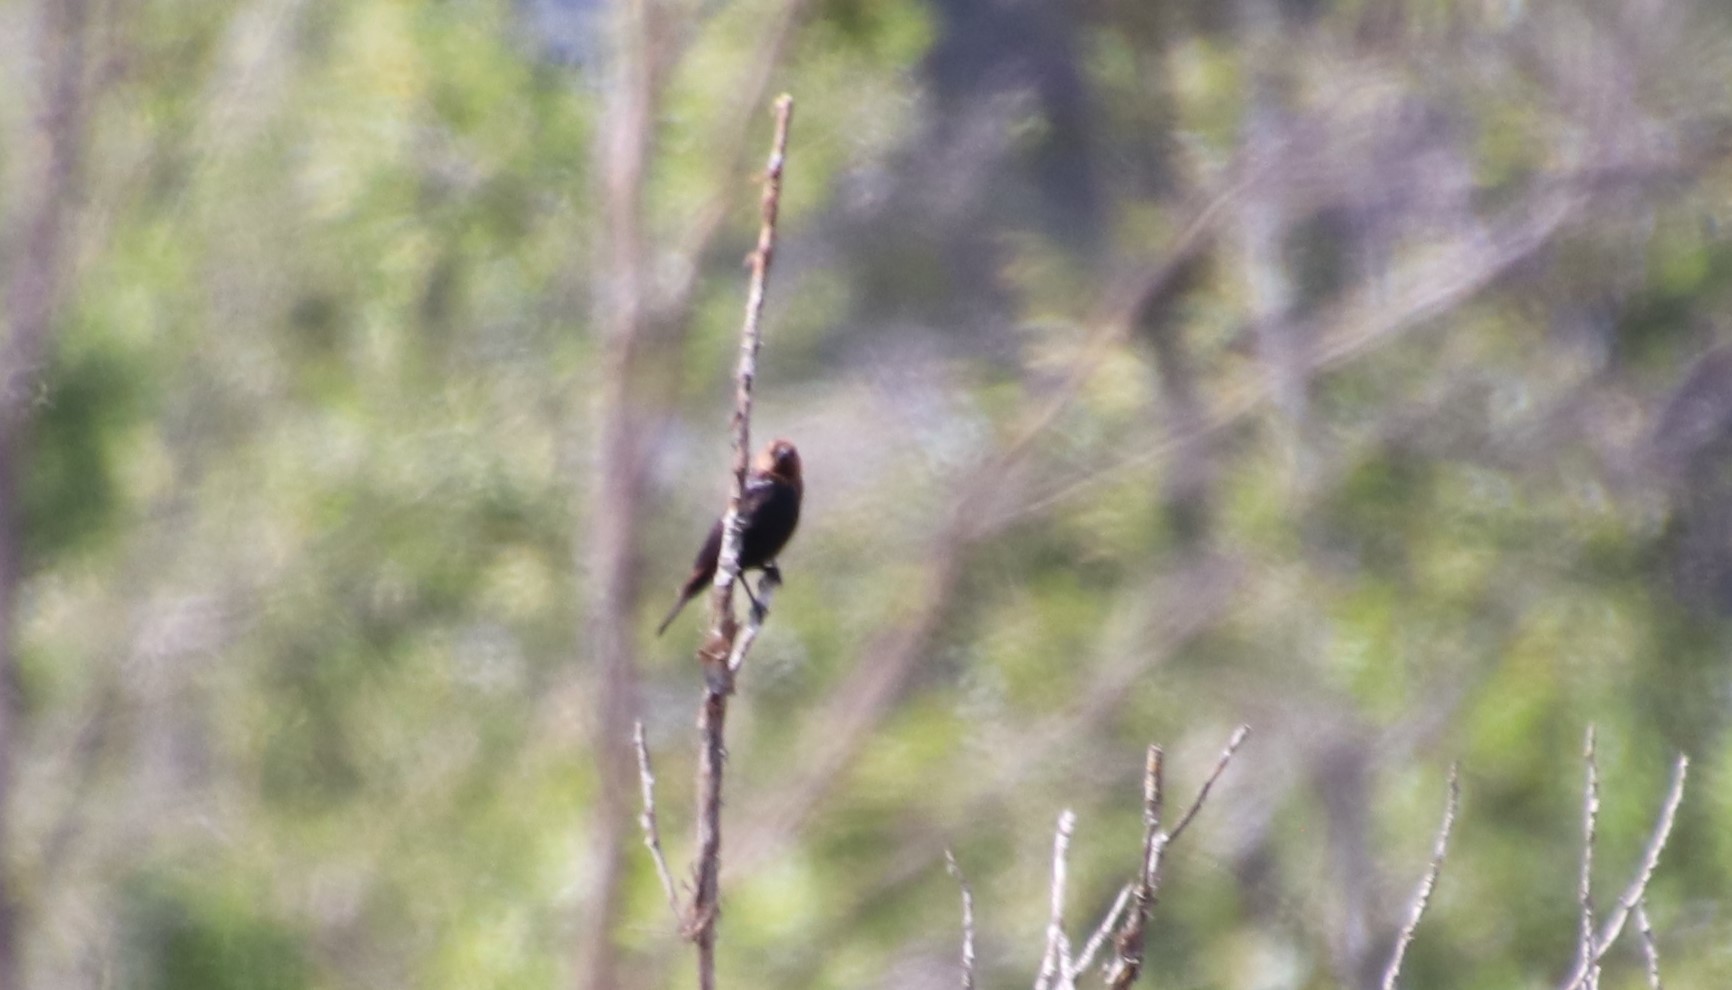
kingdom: Animalia
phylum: Chordata
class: Aves
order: Passeriformes
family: Icteridae
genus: Molothrus
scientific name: Molothrus ater
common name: Brown-headed cowbird
